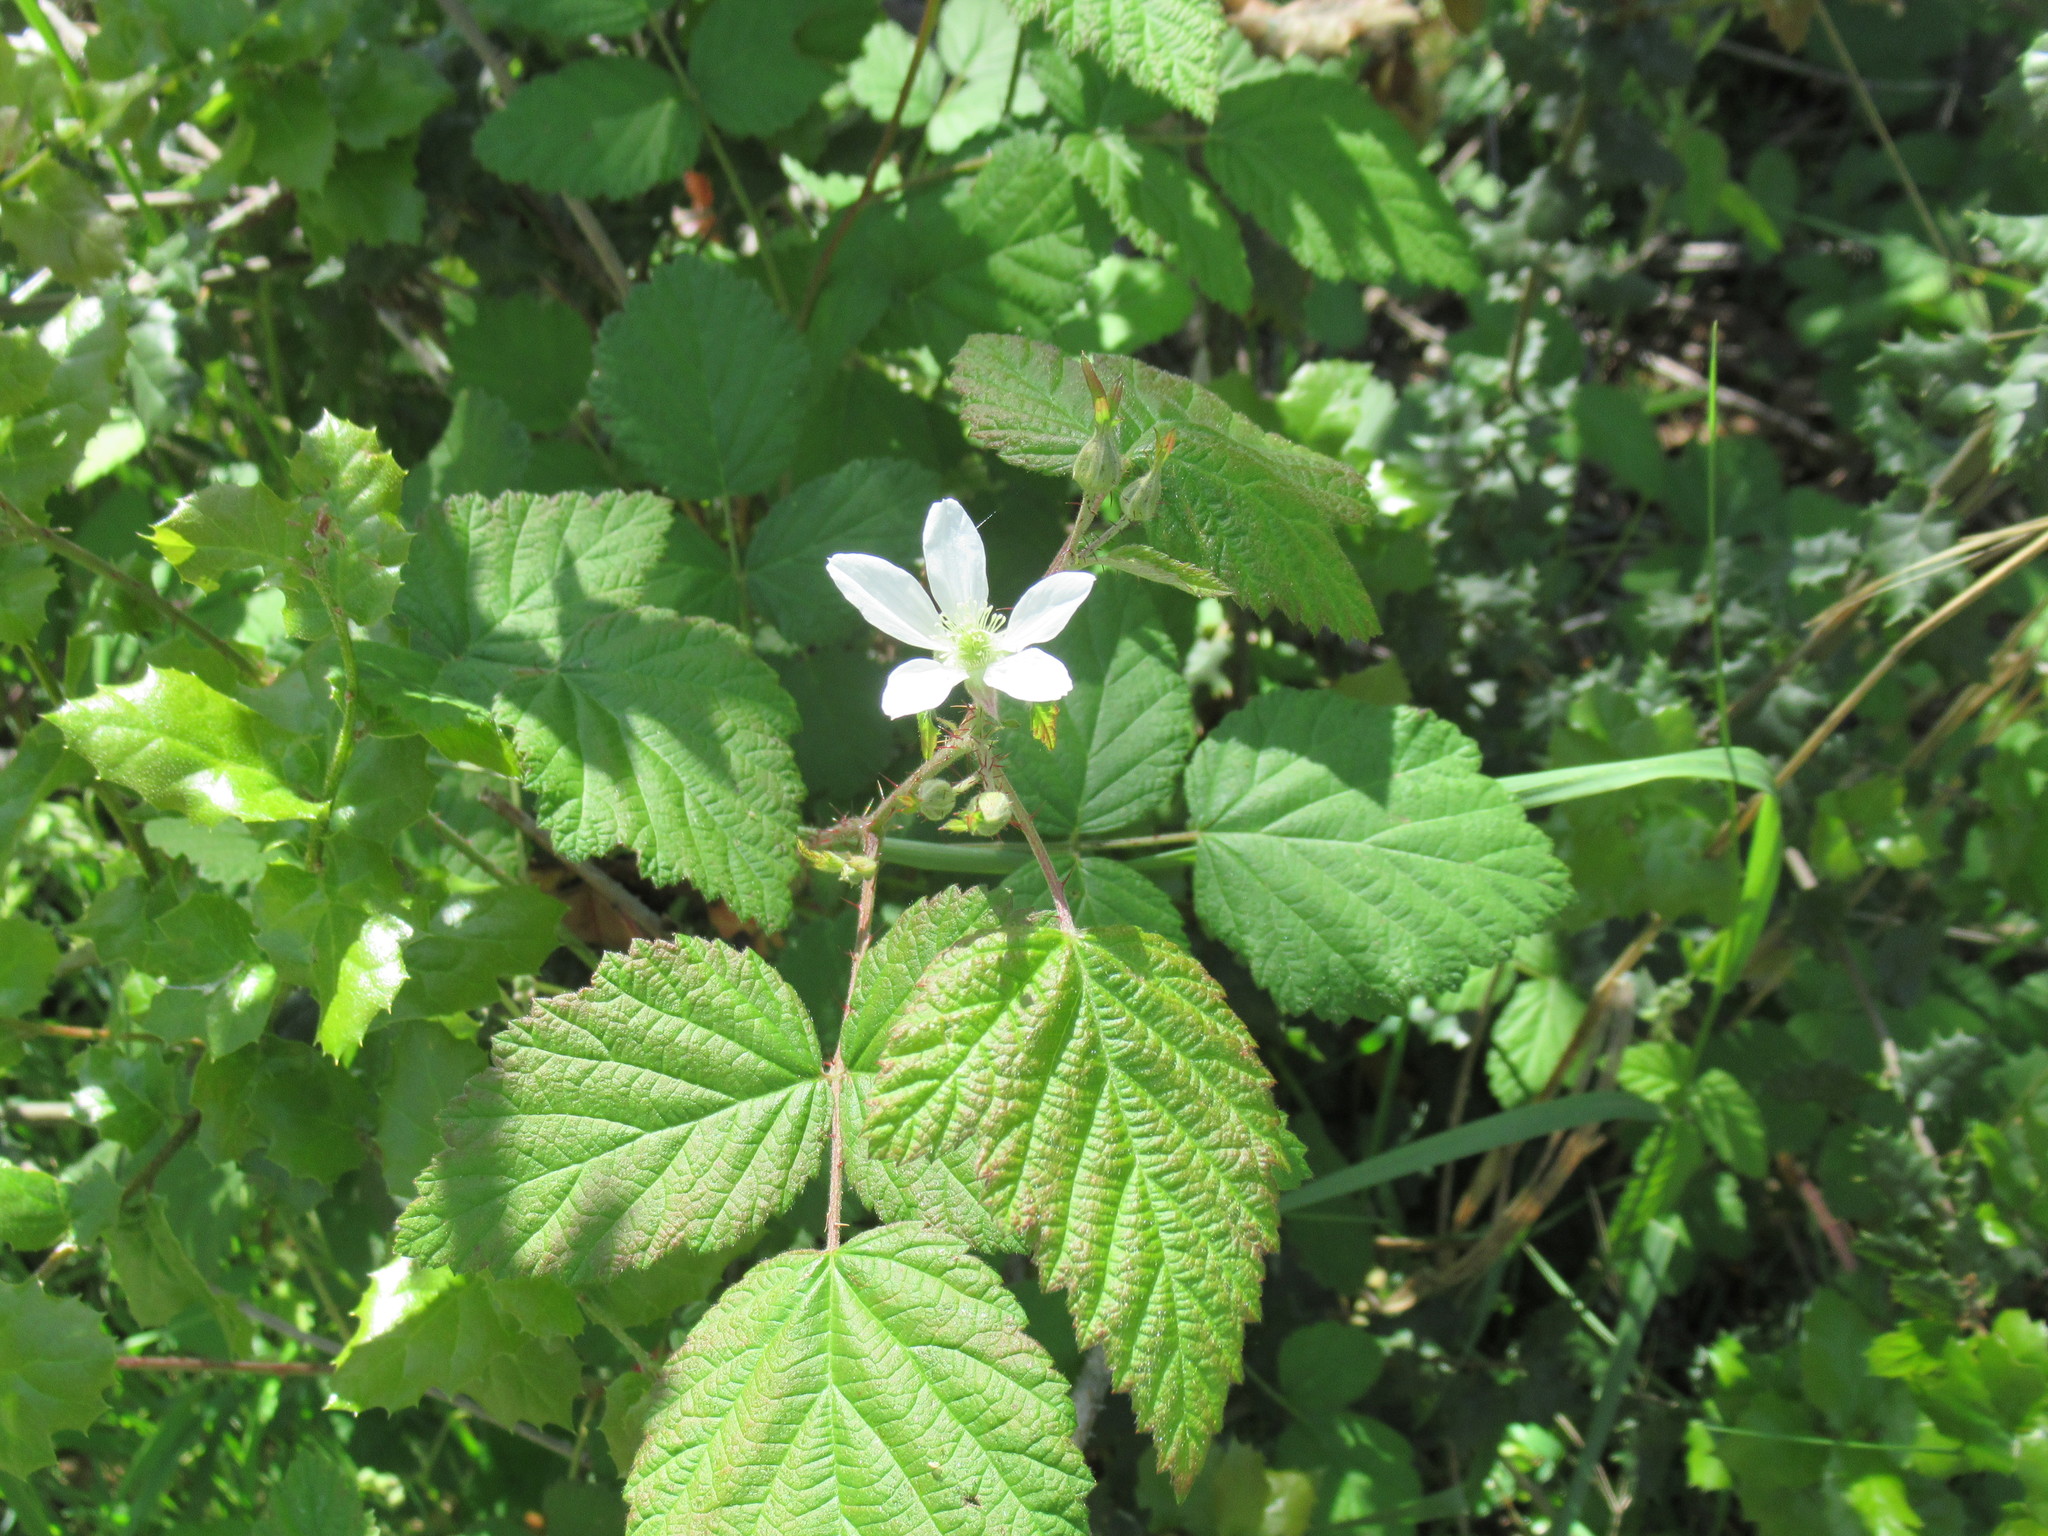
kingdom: Plantae
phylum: Tracheophyta
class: Magnoliopsida
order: Rosales
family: Rosaceae
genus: Rubus
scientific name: Rubus ursinus
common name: Pacific blackberry
